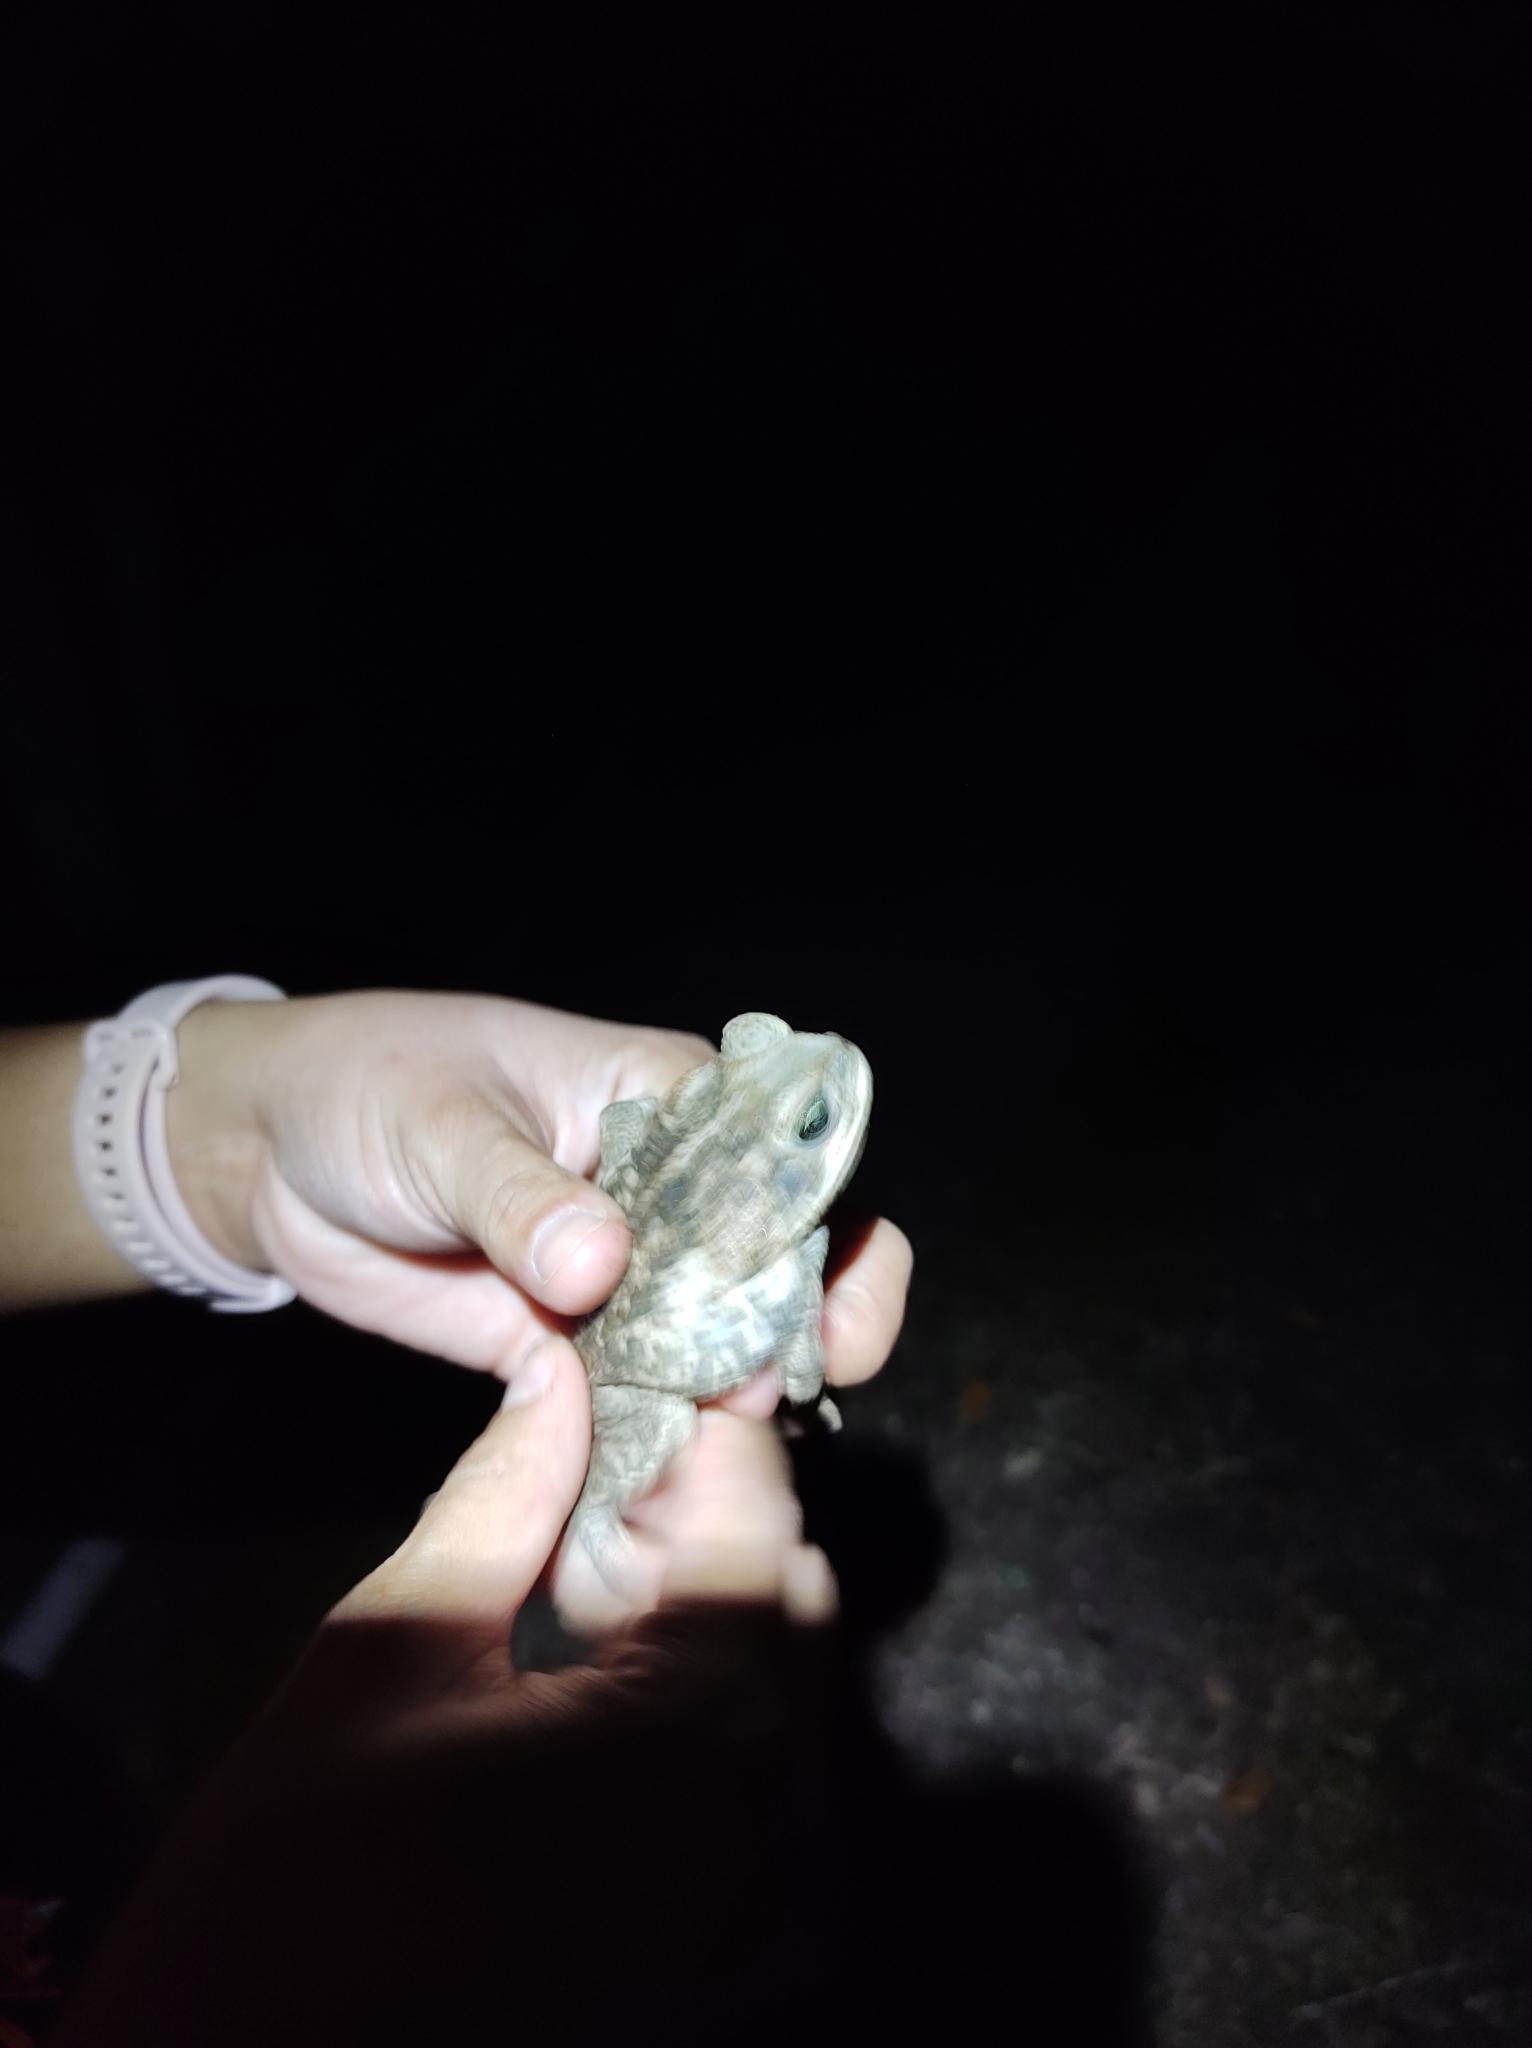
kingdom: Animalia
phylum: Chordata
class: Amphibia
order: Anura
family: Bufonidae
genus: Incilius
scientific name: Incilius valliceps
